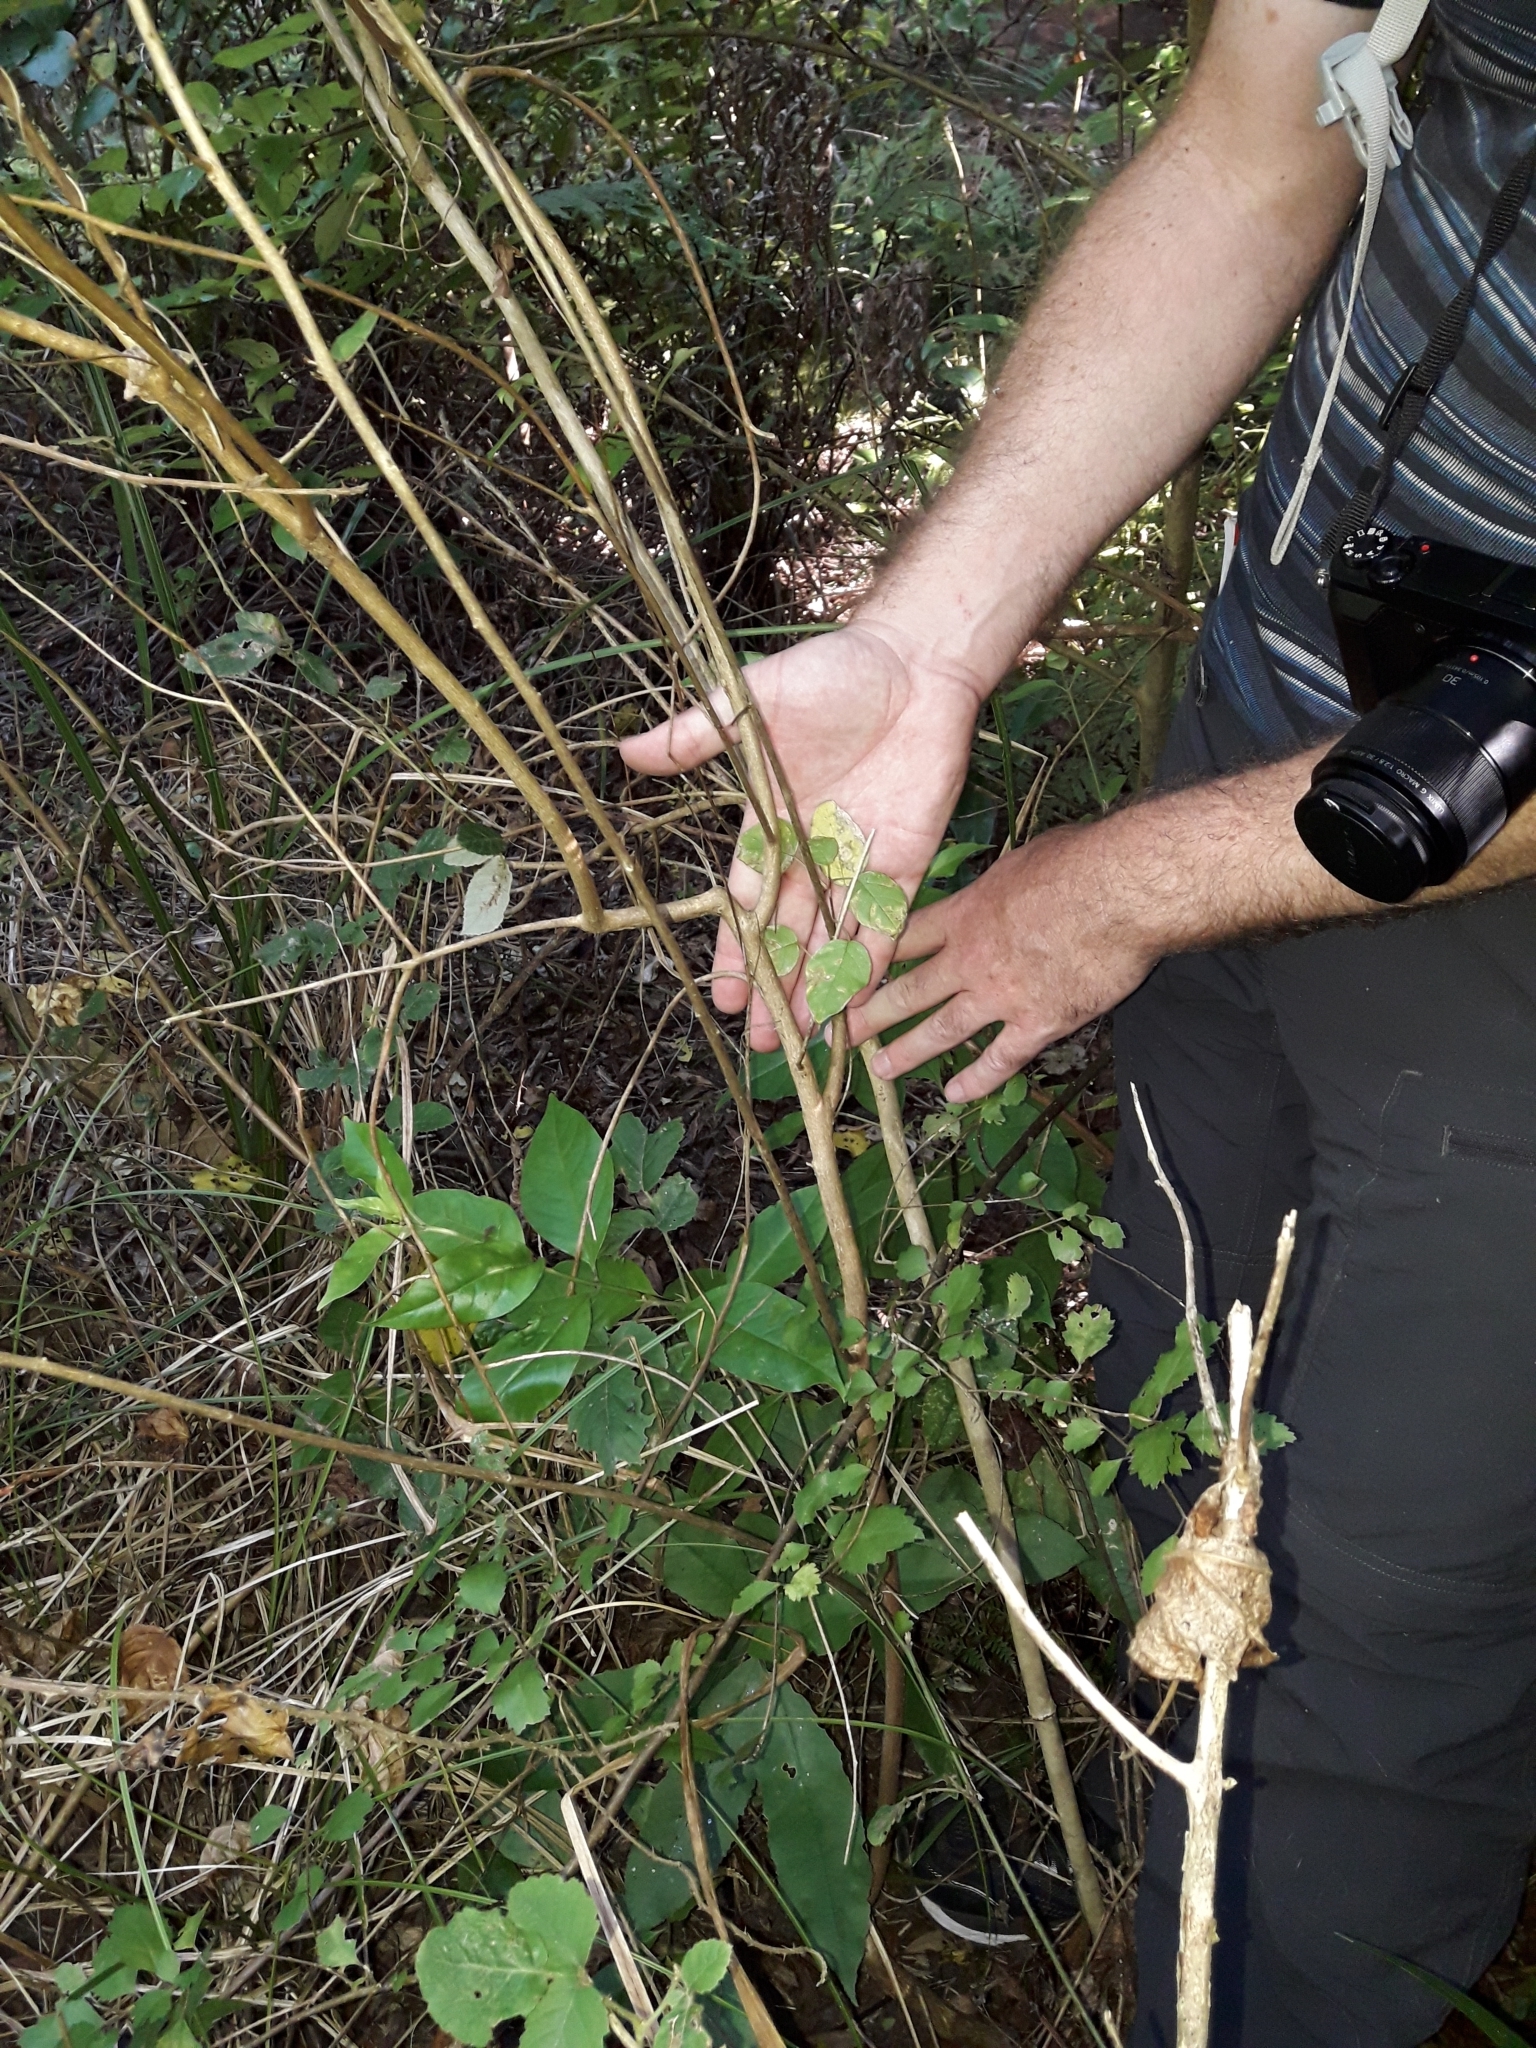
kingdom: Plantae
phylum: Tracheophyta
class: Magnoliopsida
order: Myrtales
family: Onagraceae
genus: Fuchsia
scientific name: Fuchsia colensoi
